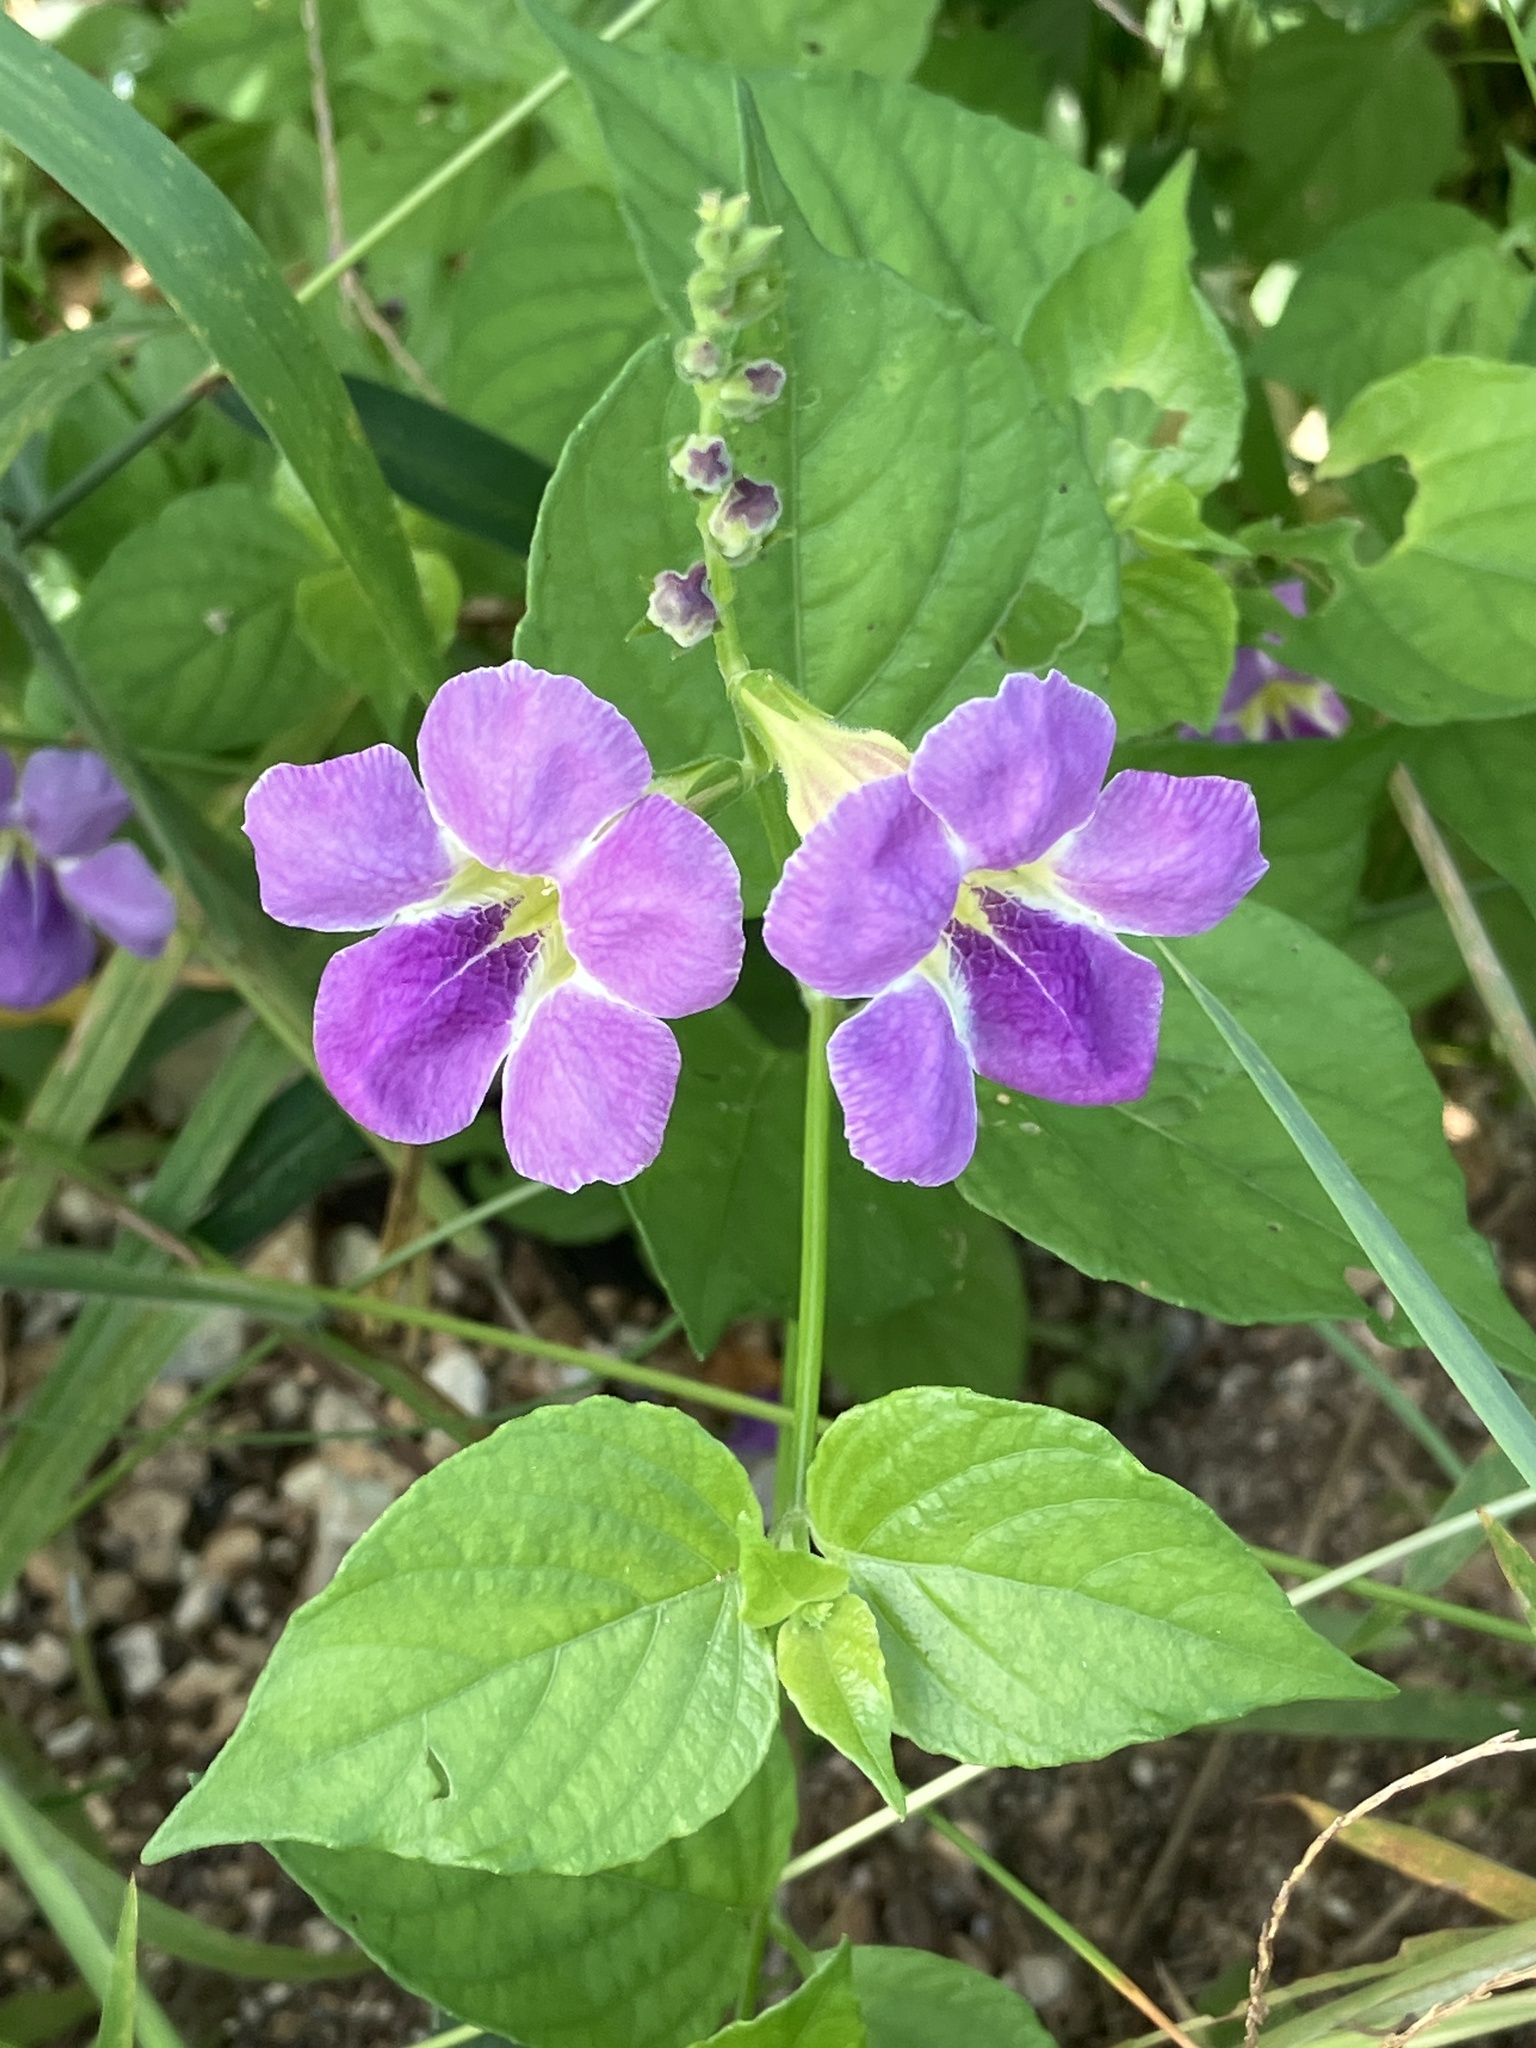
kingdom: Plantae
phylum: Tracheophyta
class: Magnoliopsida
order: Lamiales
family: Acanthaceae
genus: Asystasia
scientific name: Asystasia gangetica
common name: Chinese violet
